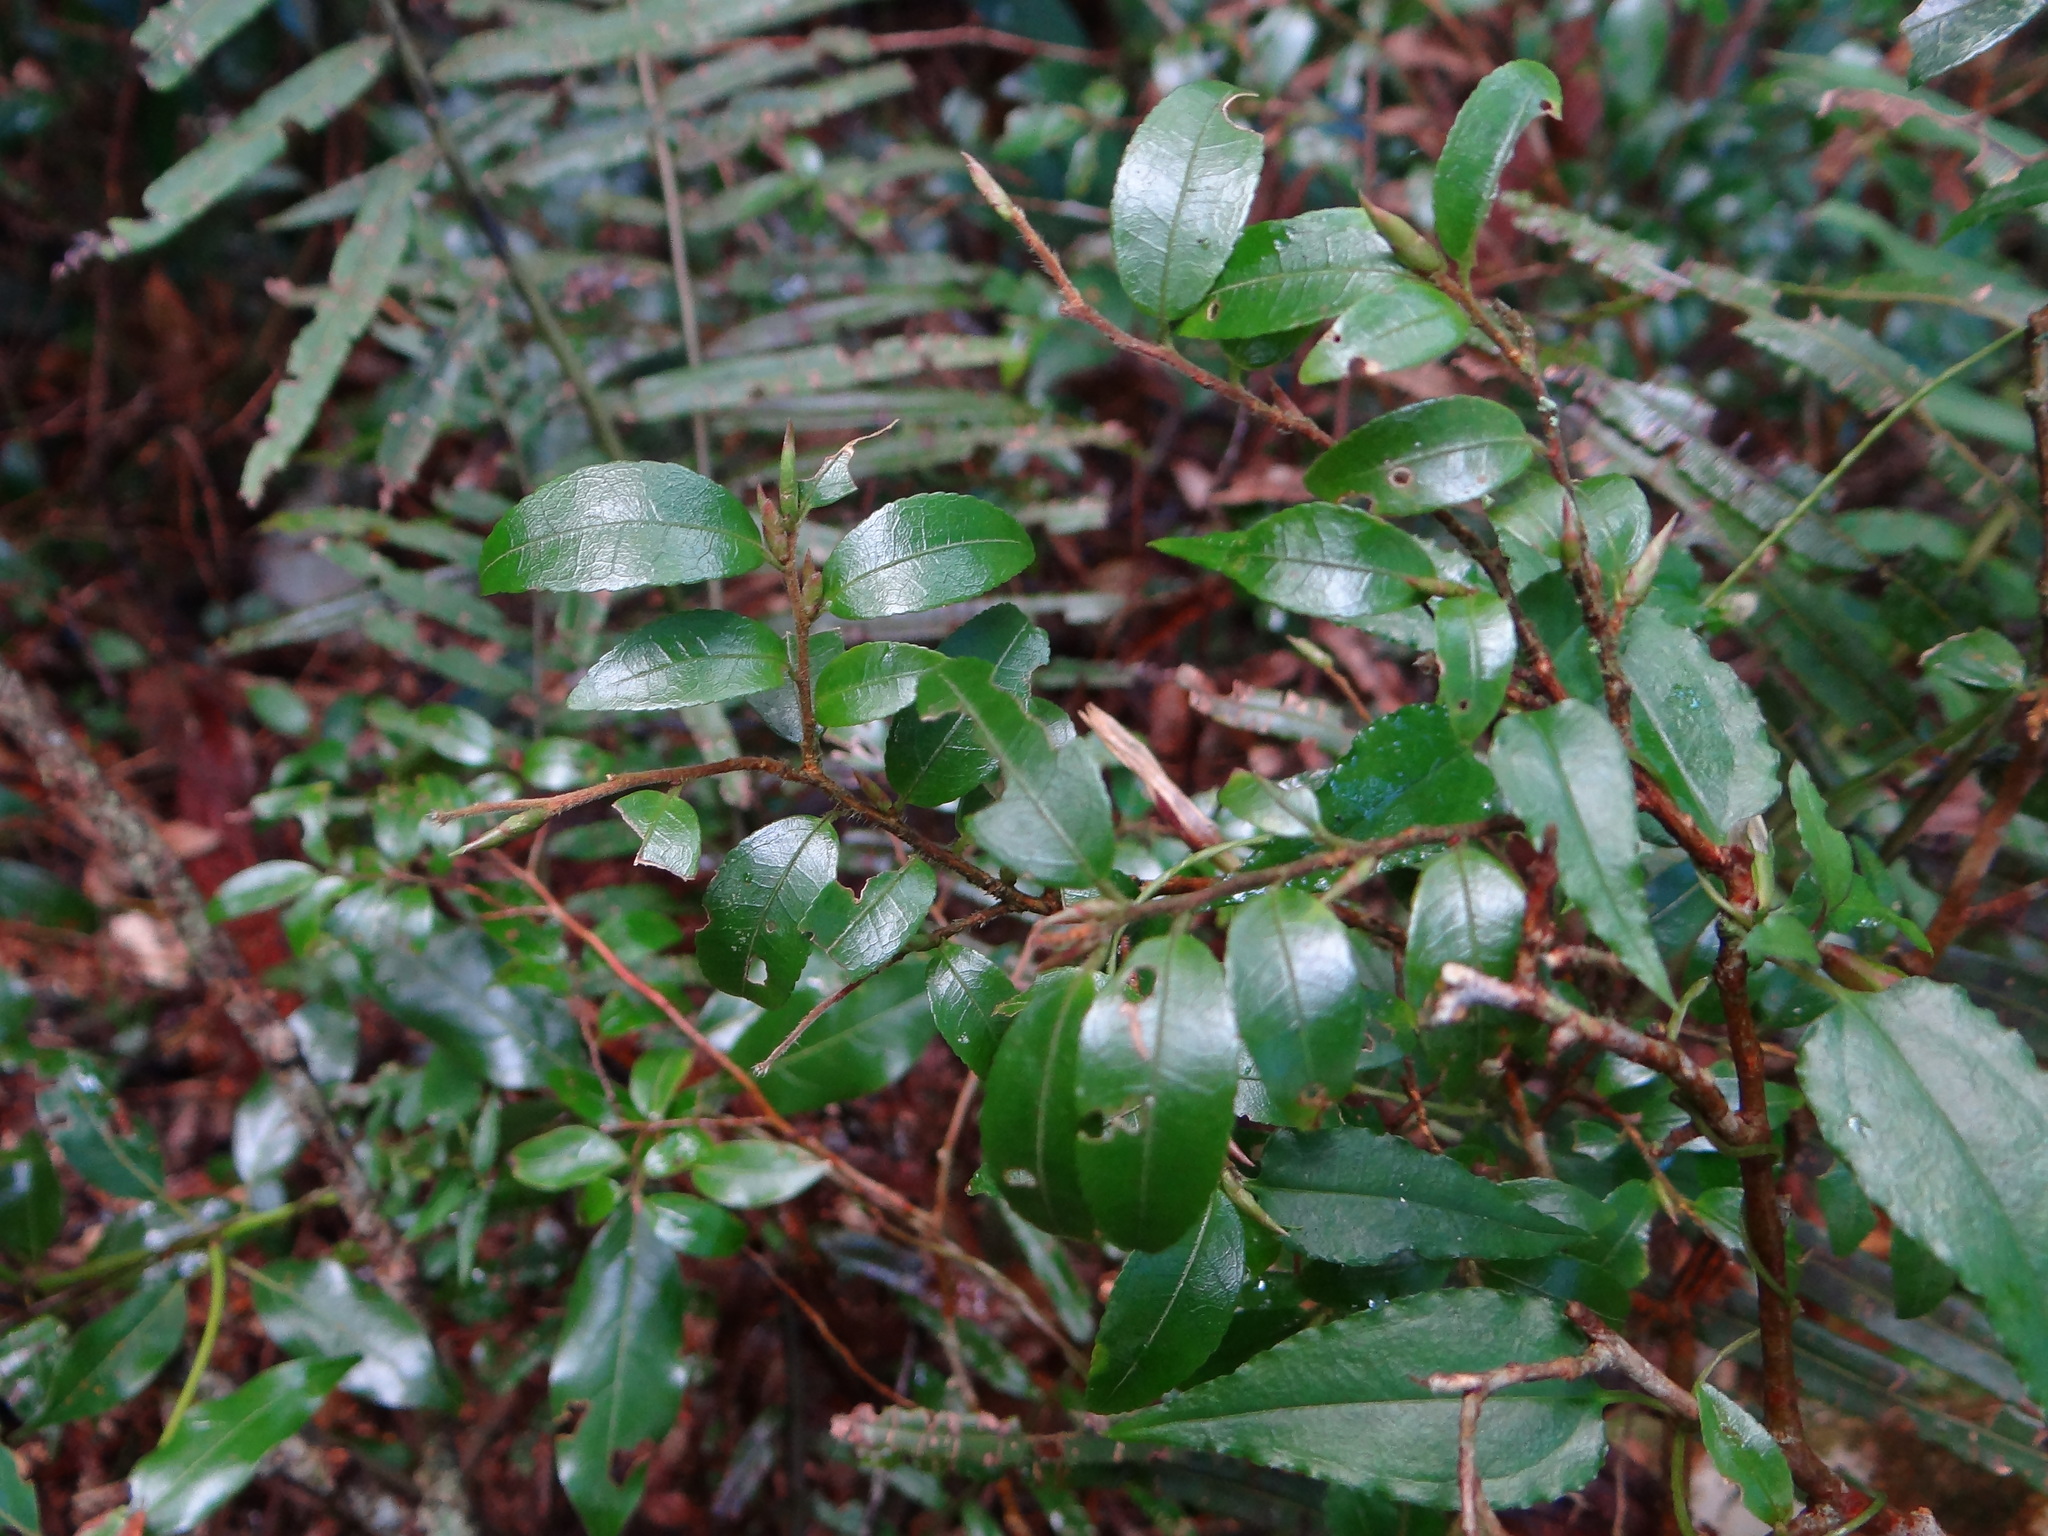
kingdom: Plantae
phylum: Tracheophyta
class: Magnoliopsida
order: Ericales
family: Theaceae
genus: Camellia
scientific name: Camellia lutchuensis
